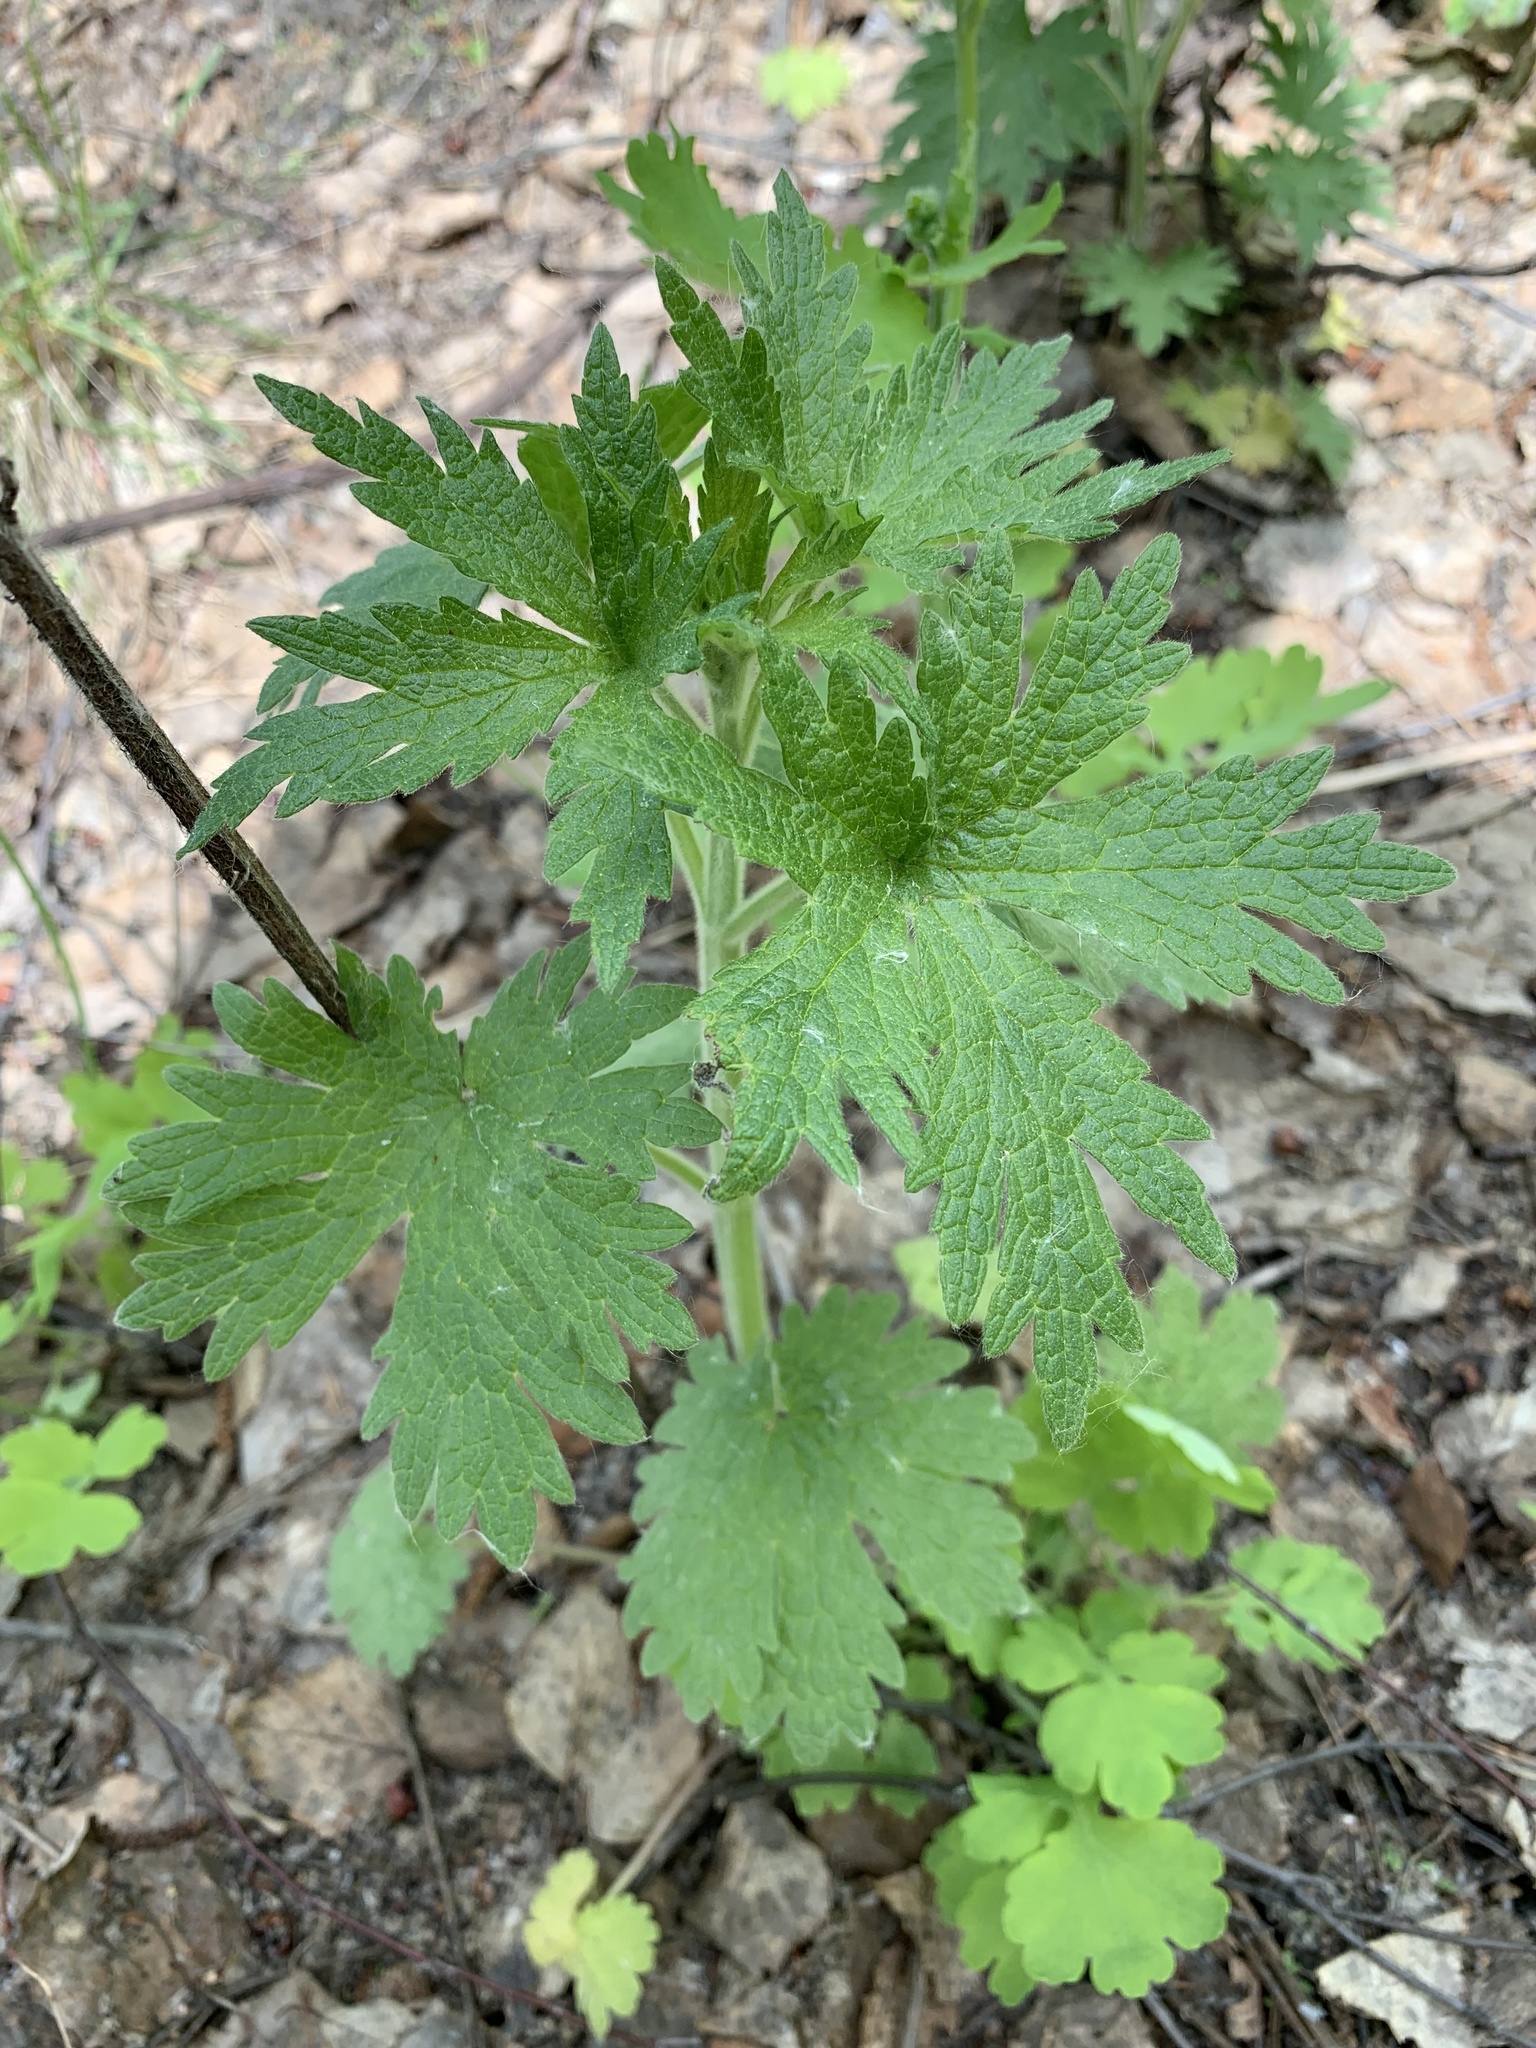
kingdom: Plantae
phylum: Tracheophyta
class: Magnoliopsida
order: Lamiales
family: Lamiaceae
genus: Leonurus
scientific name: Leonurus quinquelobatus
